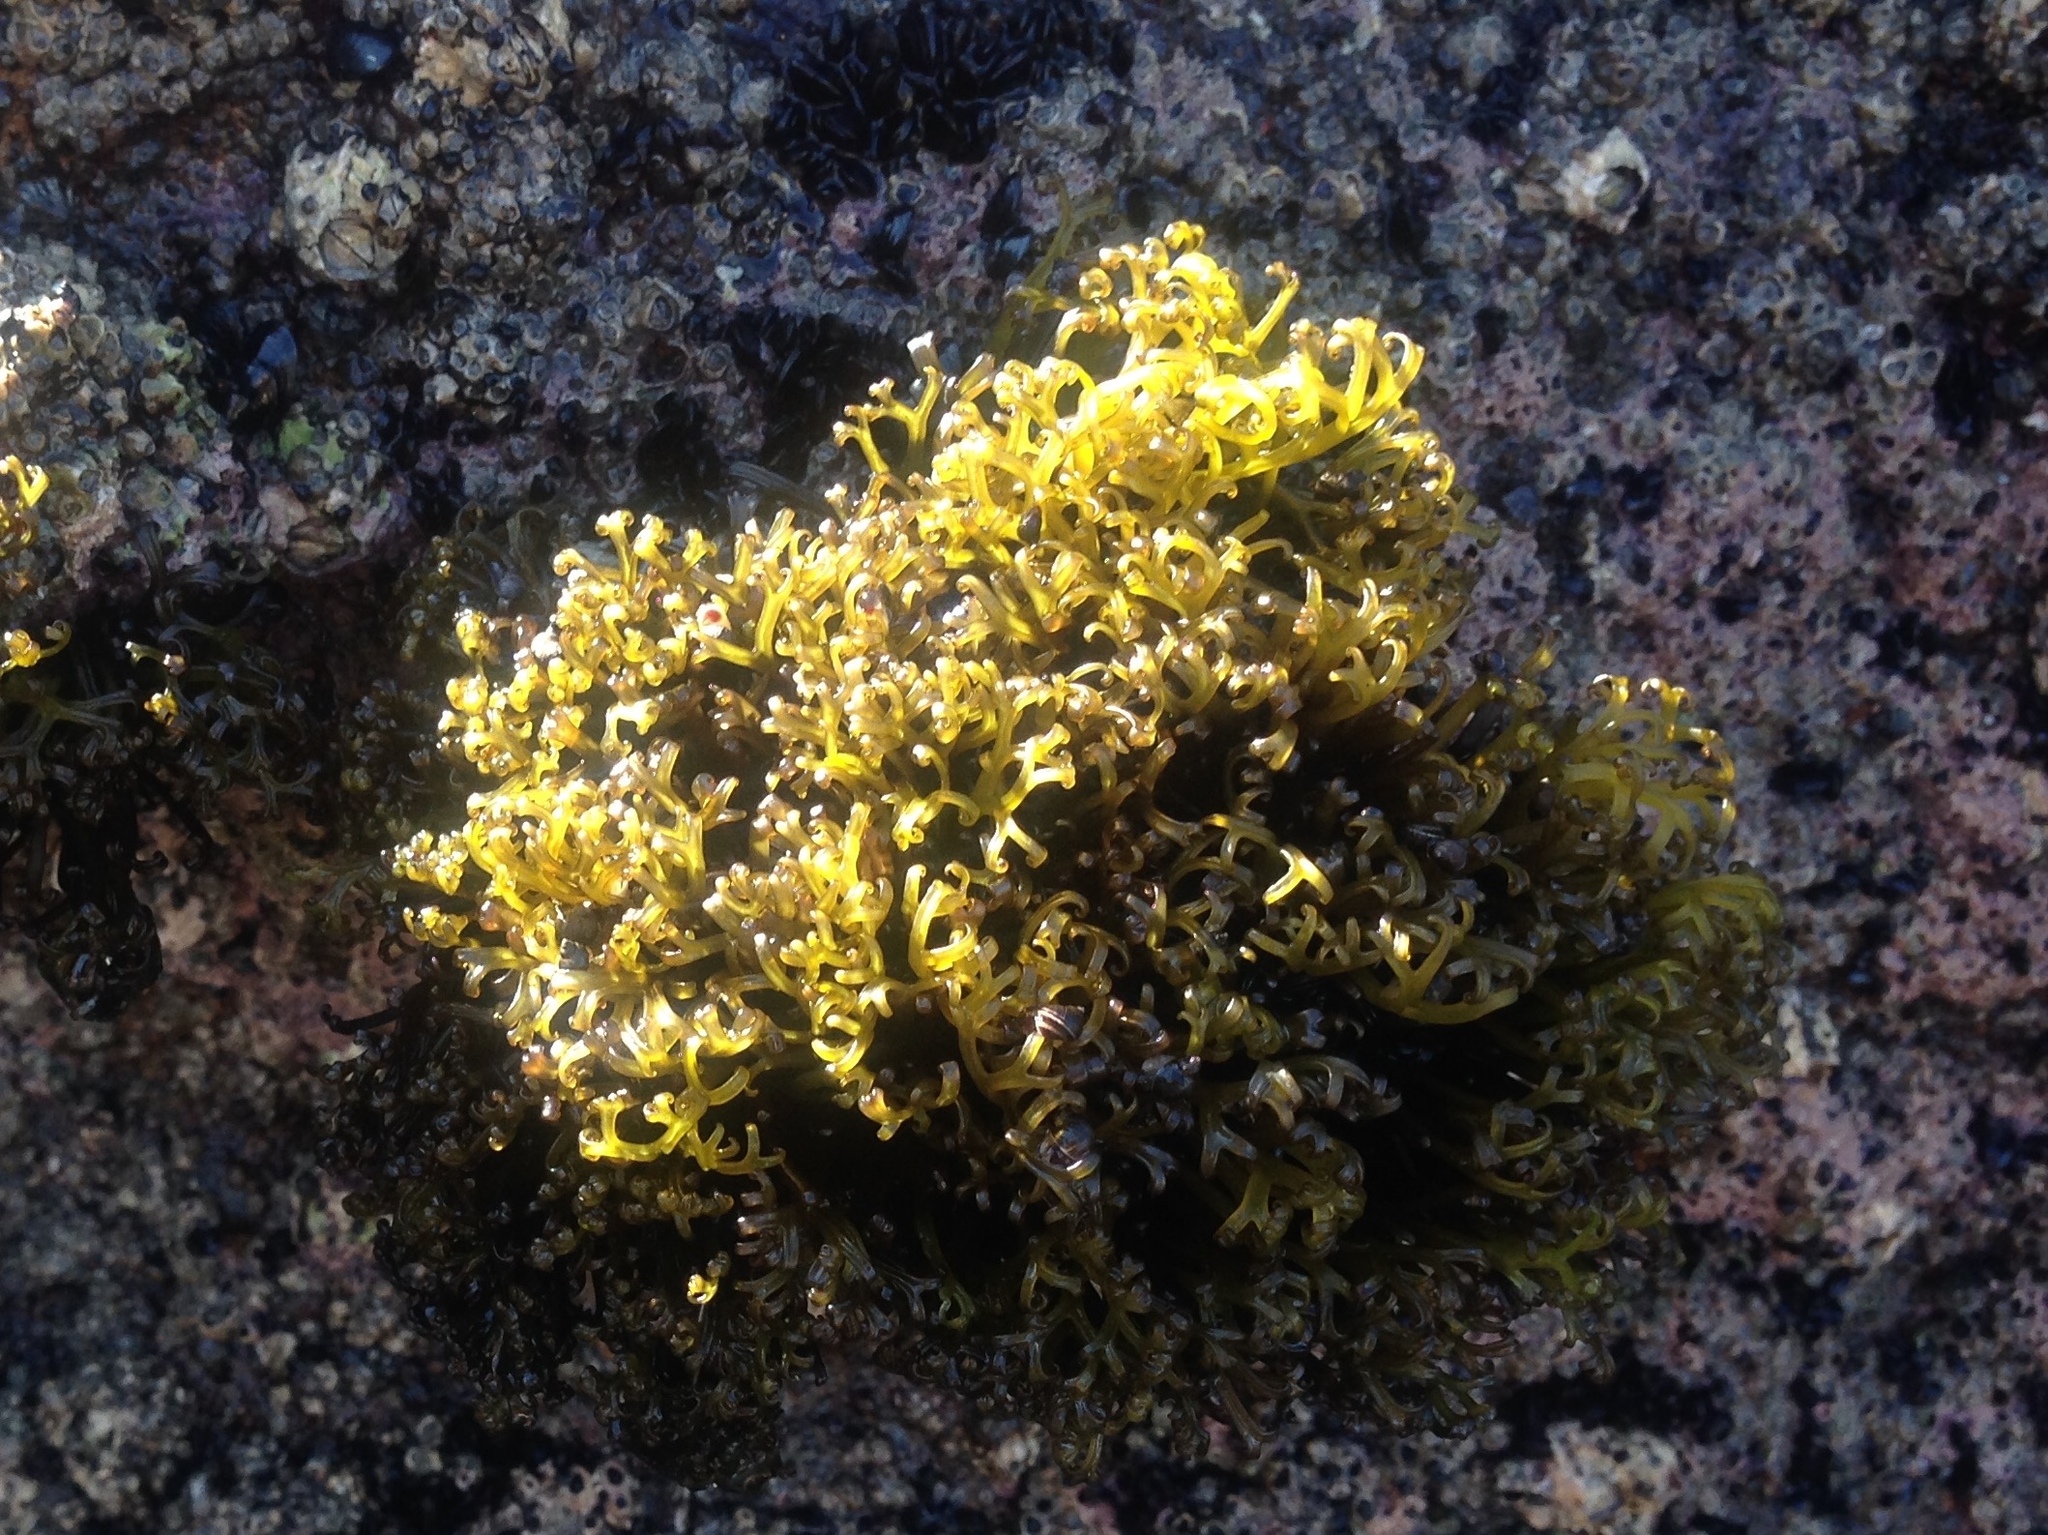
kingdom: Plantae
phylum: Rhodophyta
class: Florideophyceae
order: Gigartinales
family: Gigartinaceae
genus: Psilophycus
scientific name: Psilophycus alveatus
